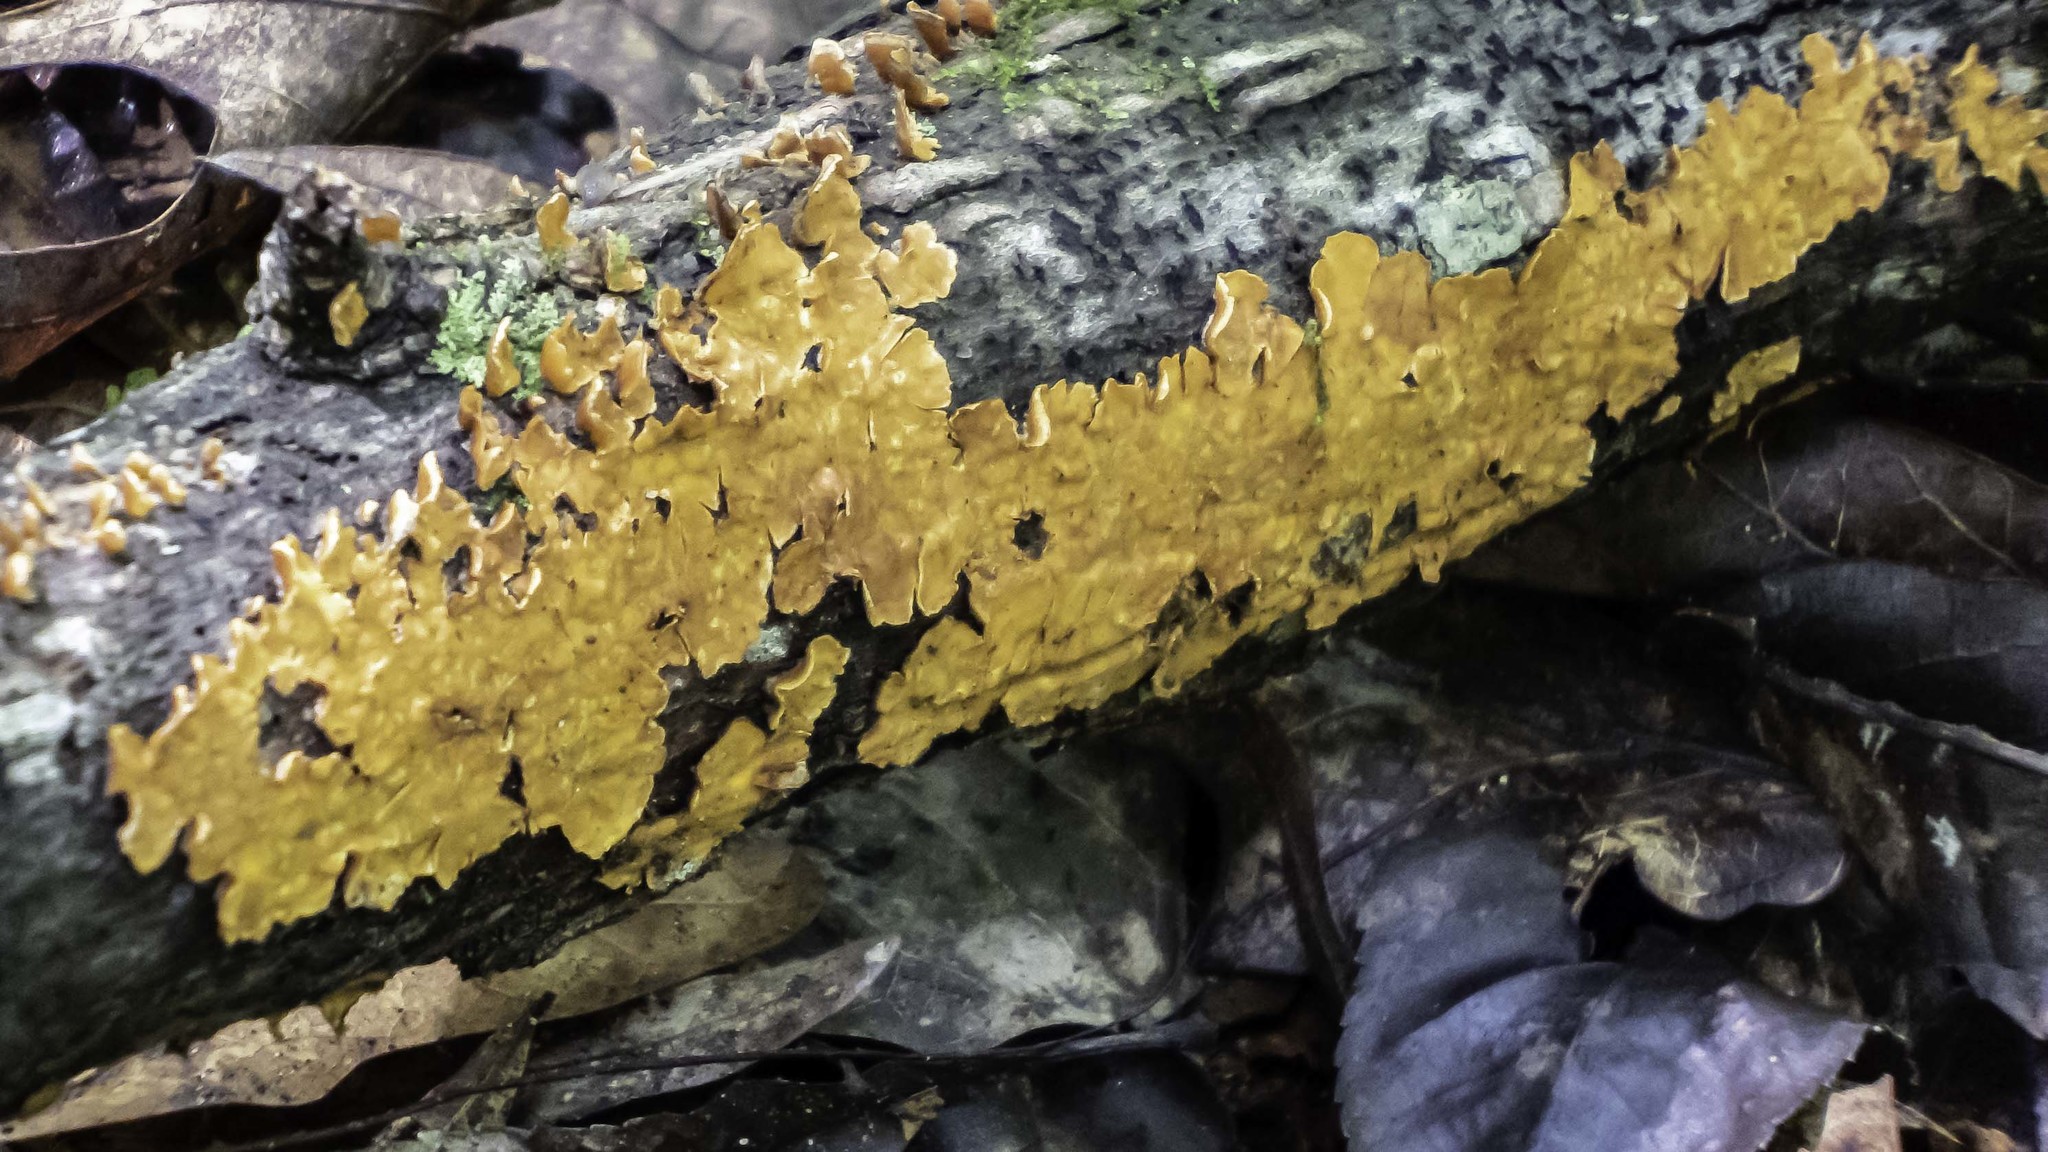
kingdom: Fungi
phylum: Basidiomycota
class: Agaricomycetes
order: Russulales
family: Stereaceae
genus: Stereum
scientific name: Stereum complicatum
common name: Crowded parchment
